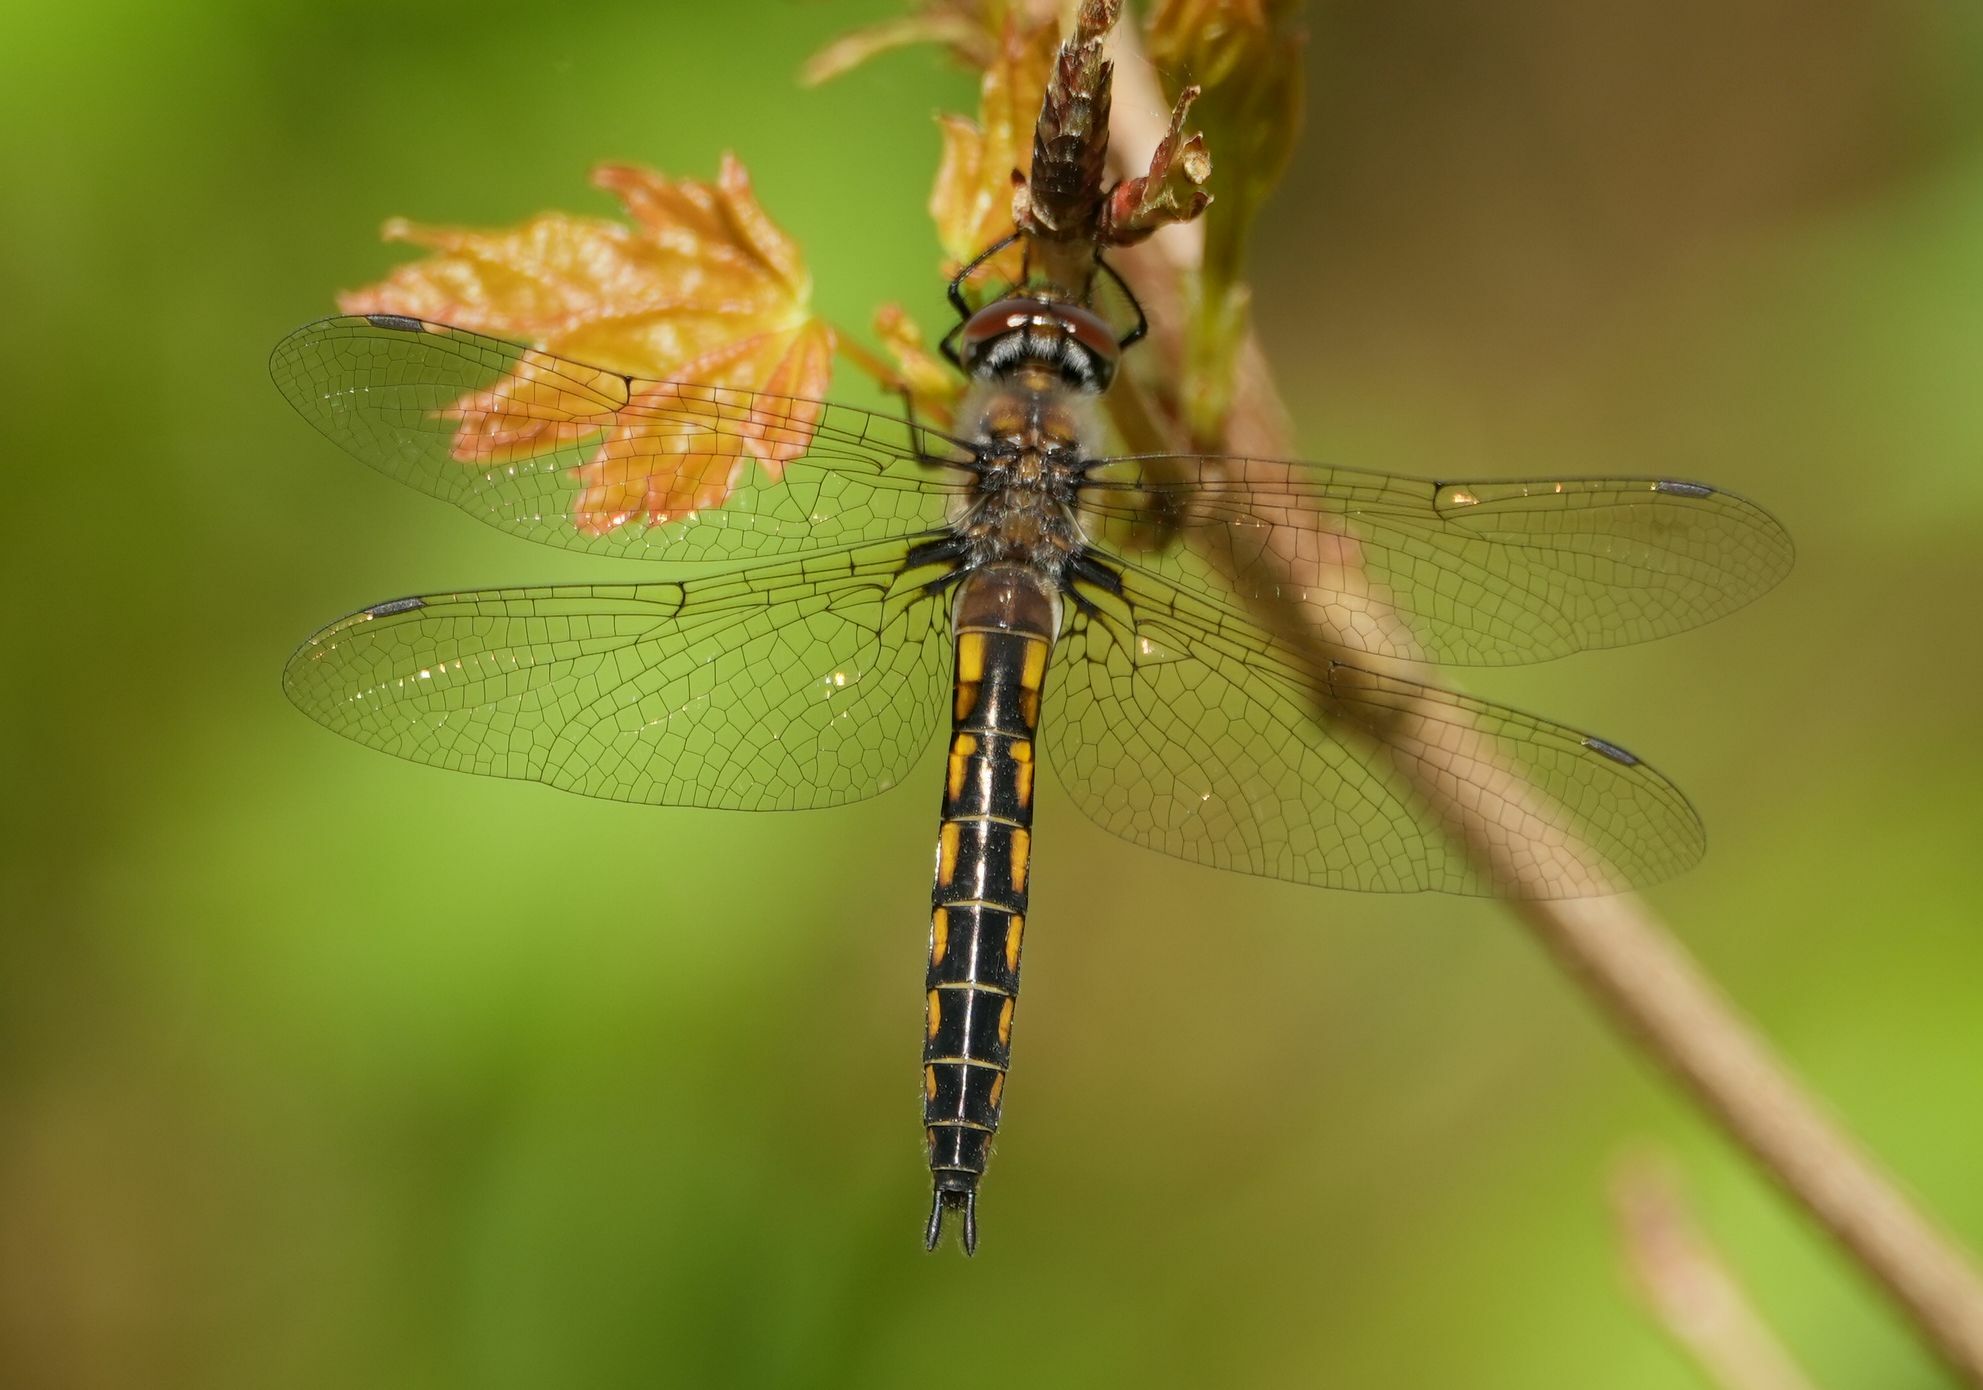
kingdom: Animalia
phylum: Arthropoda
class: Insecta
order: Odonata
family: Corduliidae
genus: Epitheca
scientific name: Epitheca spinigera
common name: Spiny baskettail
